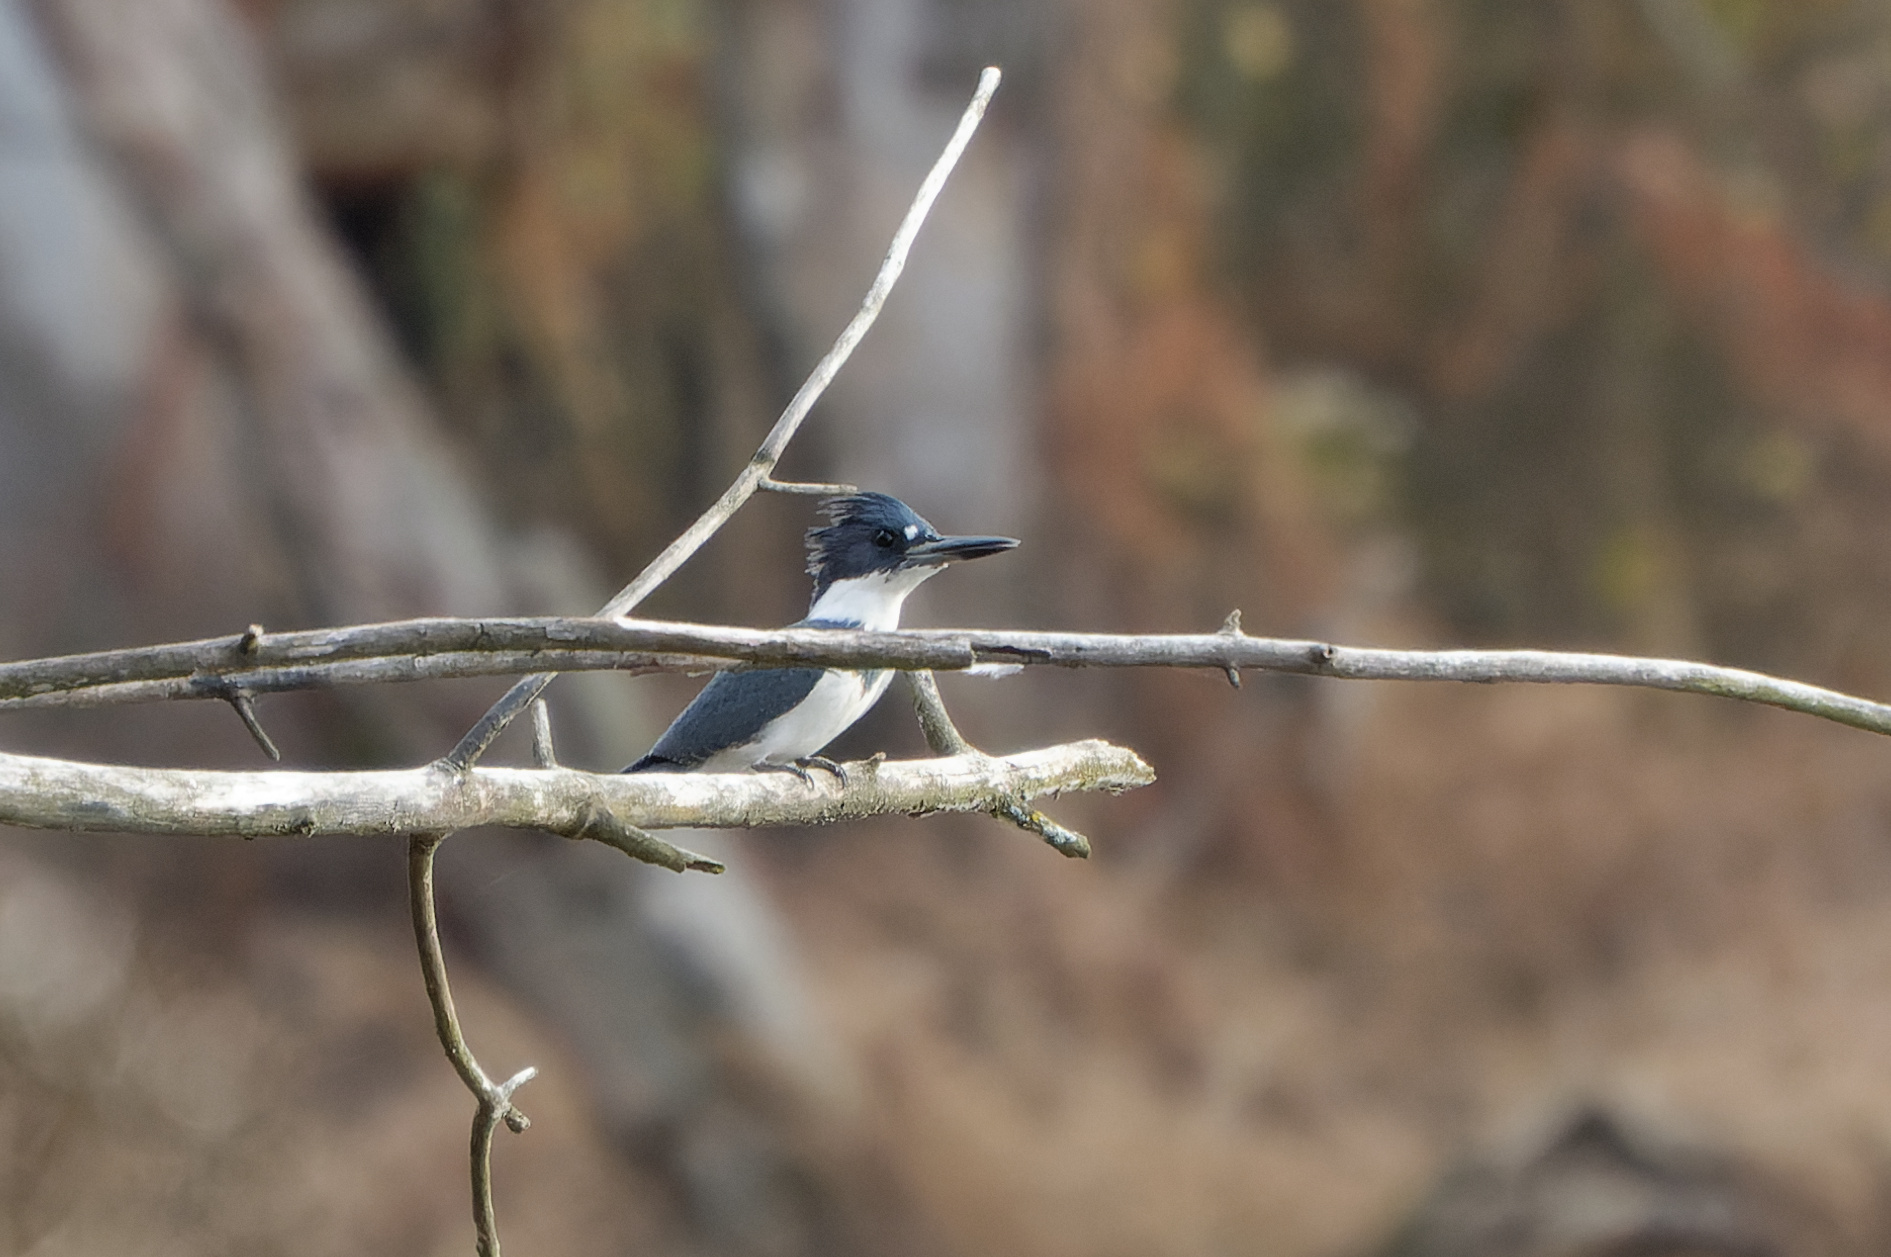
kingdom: Animalia
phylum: Chordata
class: Aves
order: Coraciiformes
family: Alcedinidae
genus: Megaceryle
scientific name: Megaceryle alcyon
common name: Belted kingfisher
